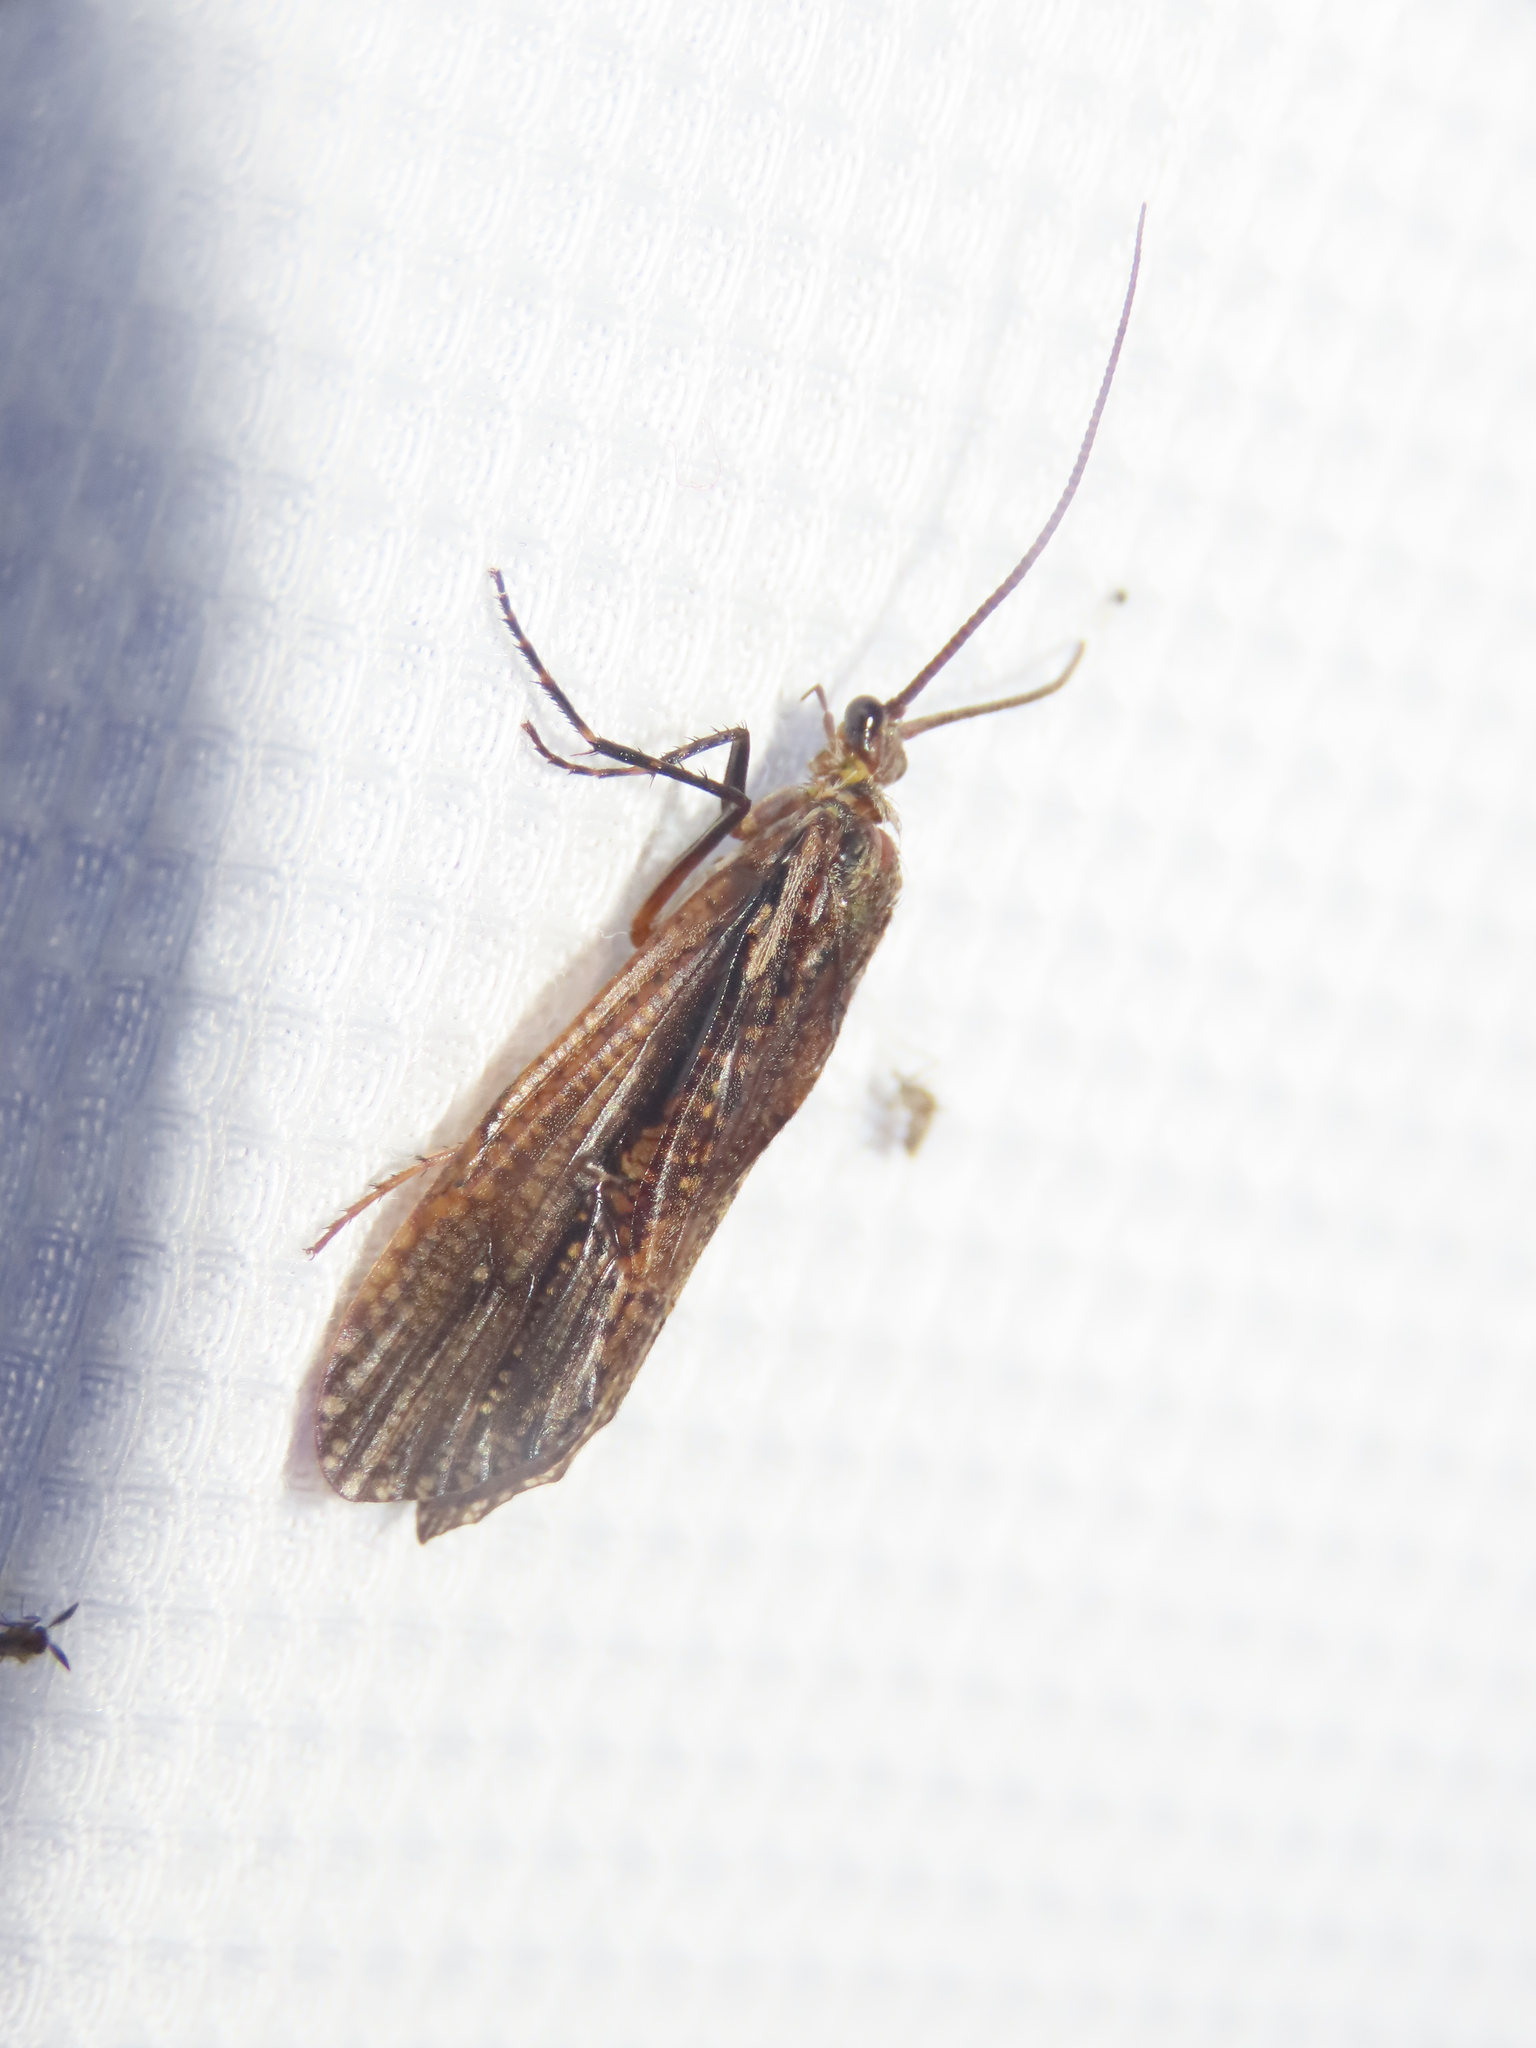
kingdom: Animalia
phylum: Arthropoda
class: Insecta
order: Trichoptera
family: Phryganeidae
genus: Phryganea
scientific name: Phryganea sayi
